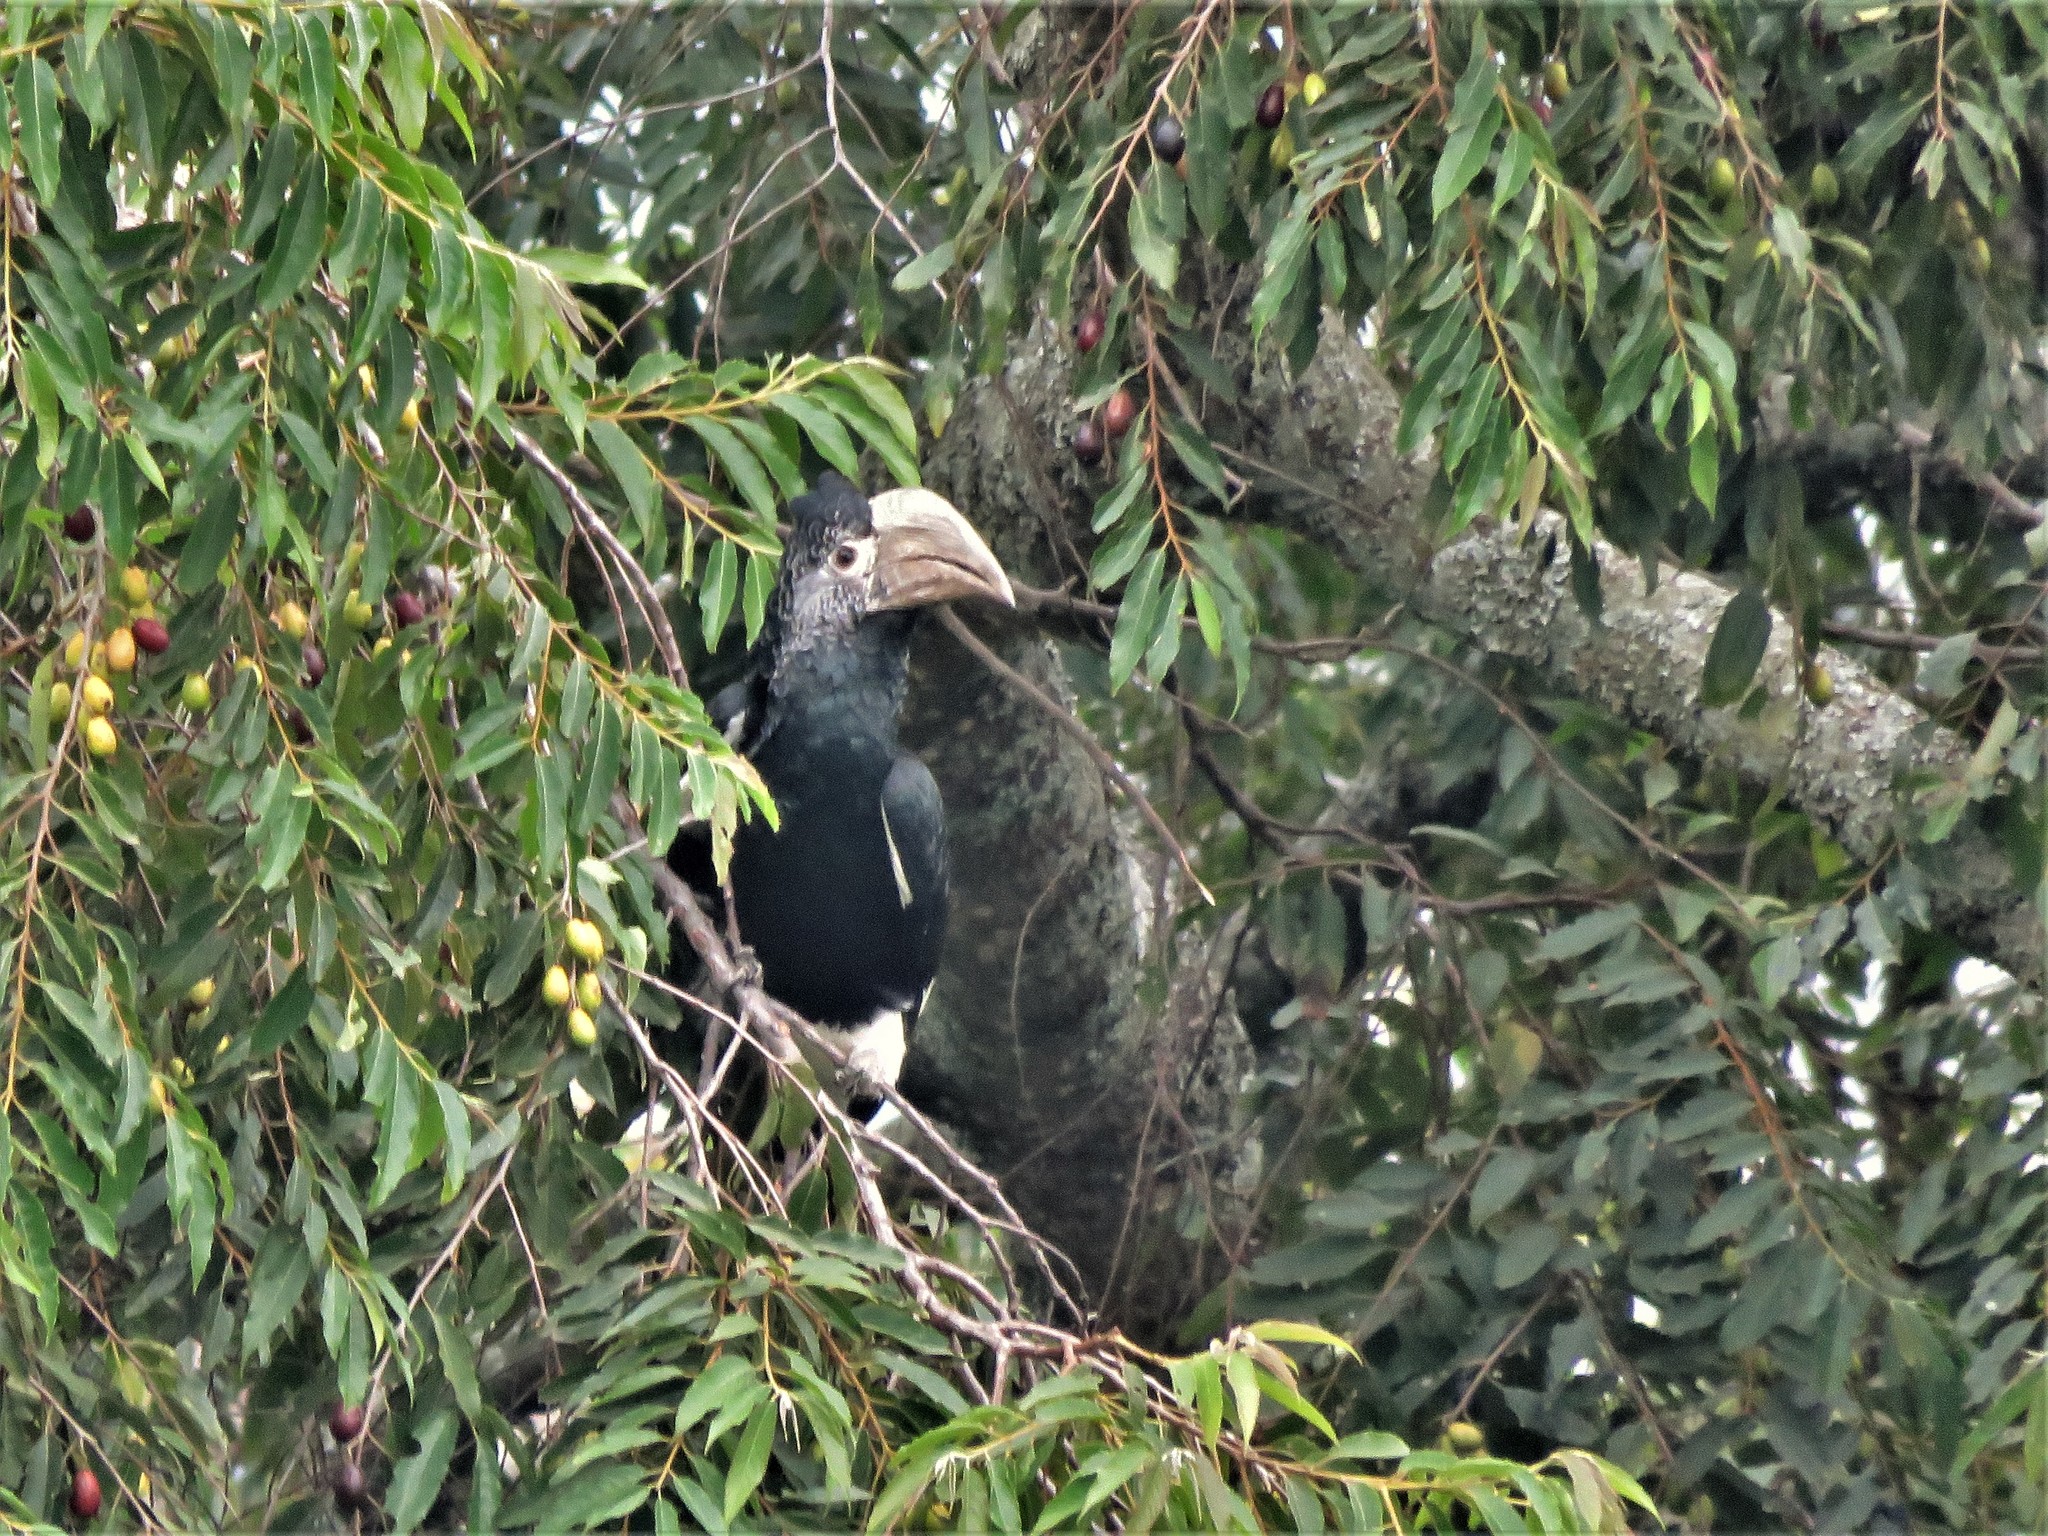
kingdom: Animalia
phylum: Chordata
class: Aves
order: Bucerotiformes
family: Bucerotidae
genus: Bycanistes
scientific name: Bycanistes subcylindricus
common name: Black-and-white-casqued hornbill
